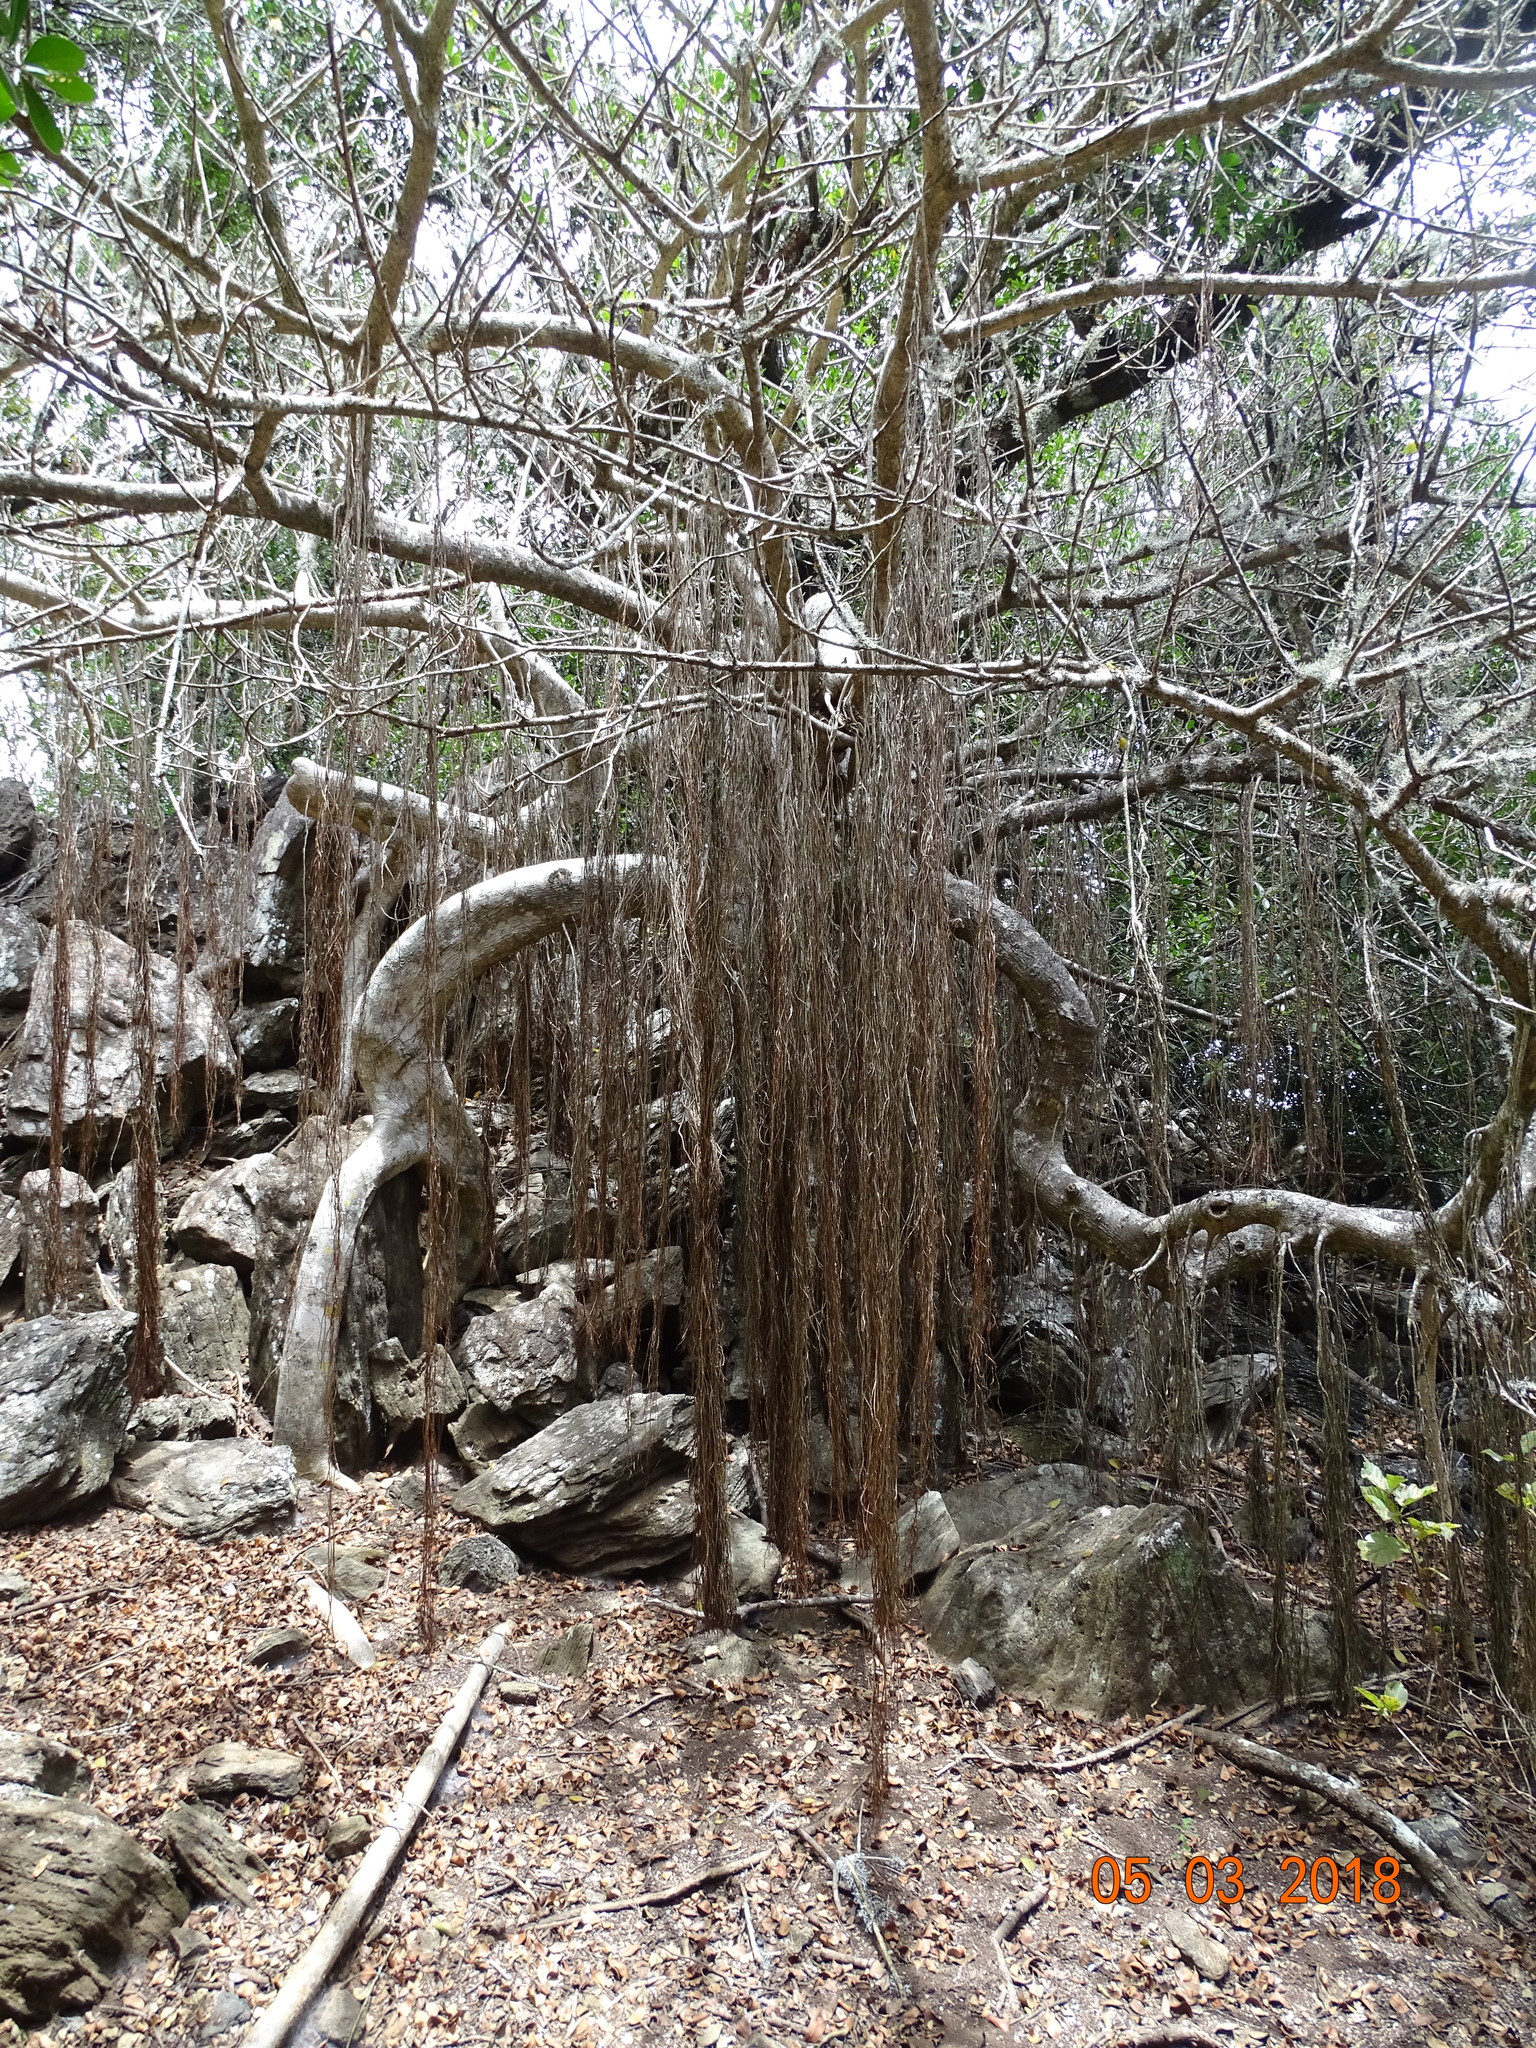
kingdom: Plantae
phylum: Tracheophyta
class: Magnoliopsida
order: Rosales
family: Moraceae
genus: Ficus
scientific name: Ficus cotinifolia
